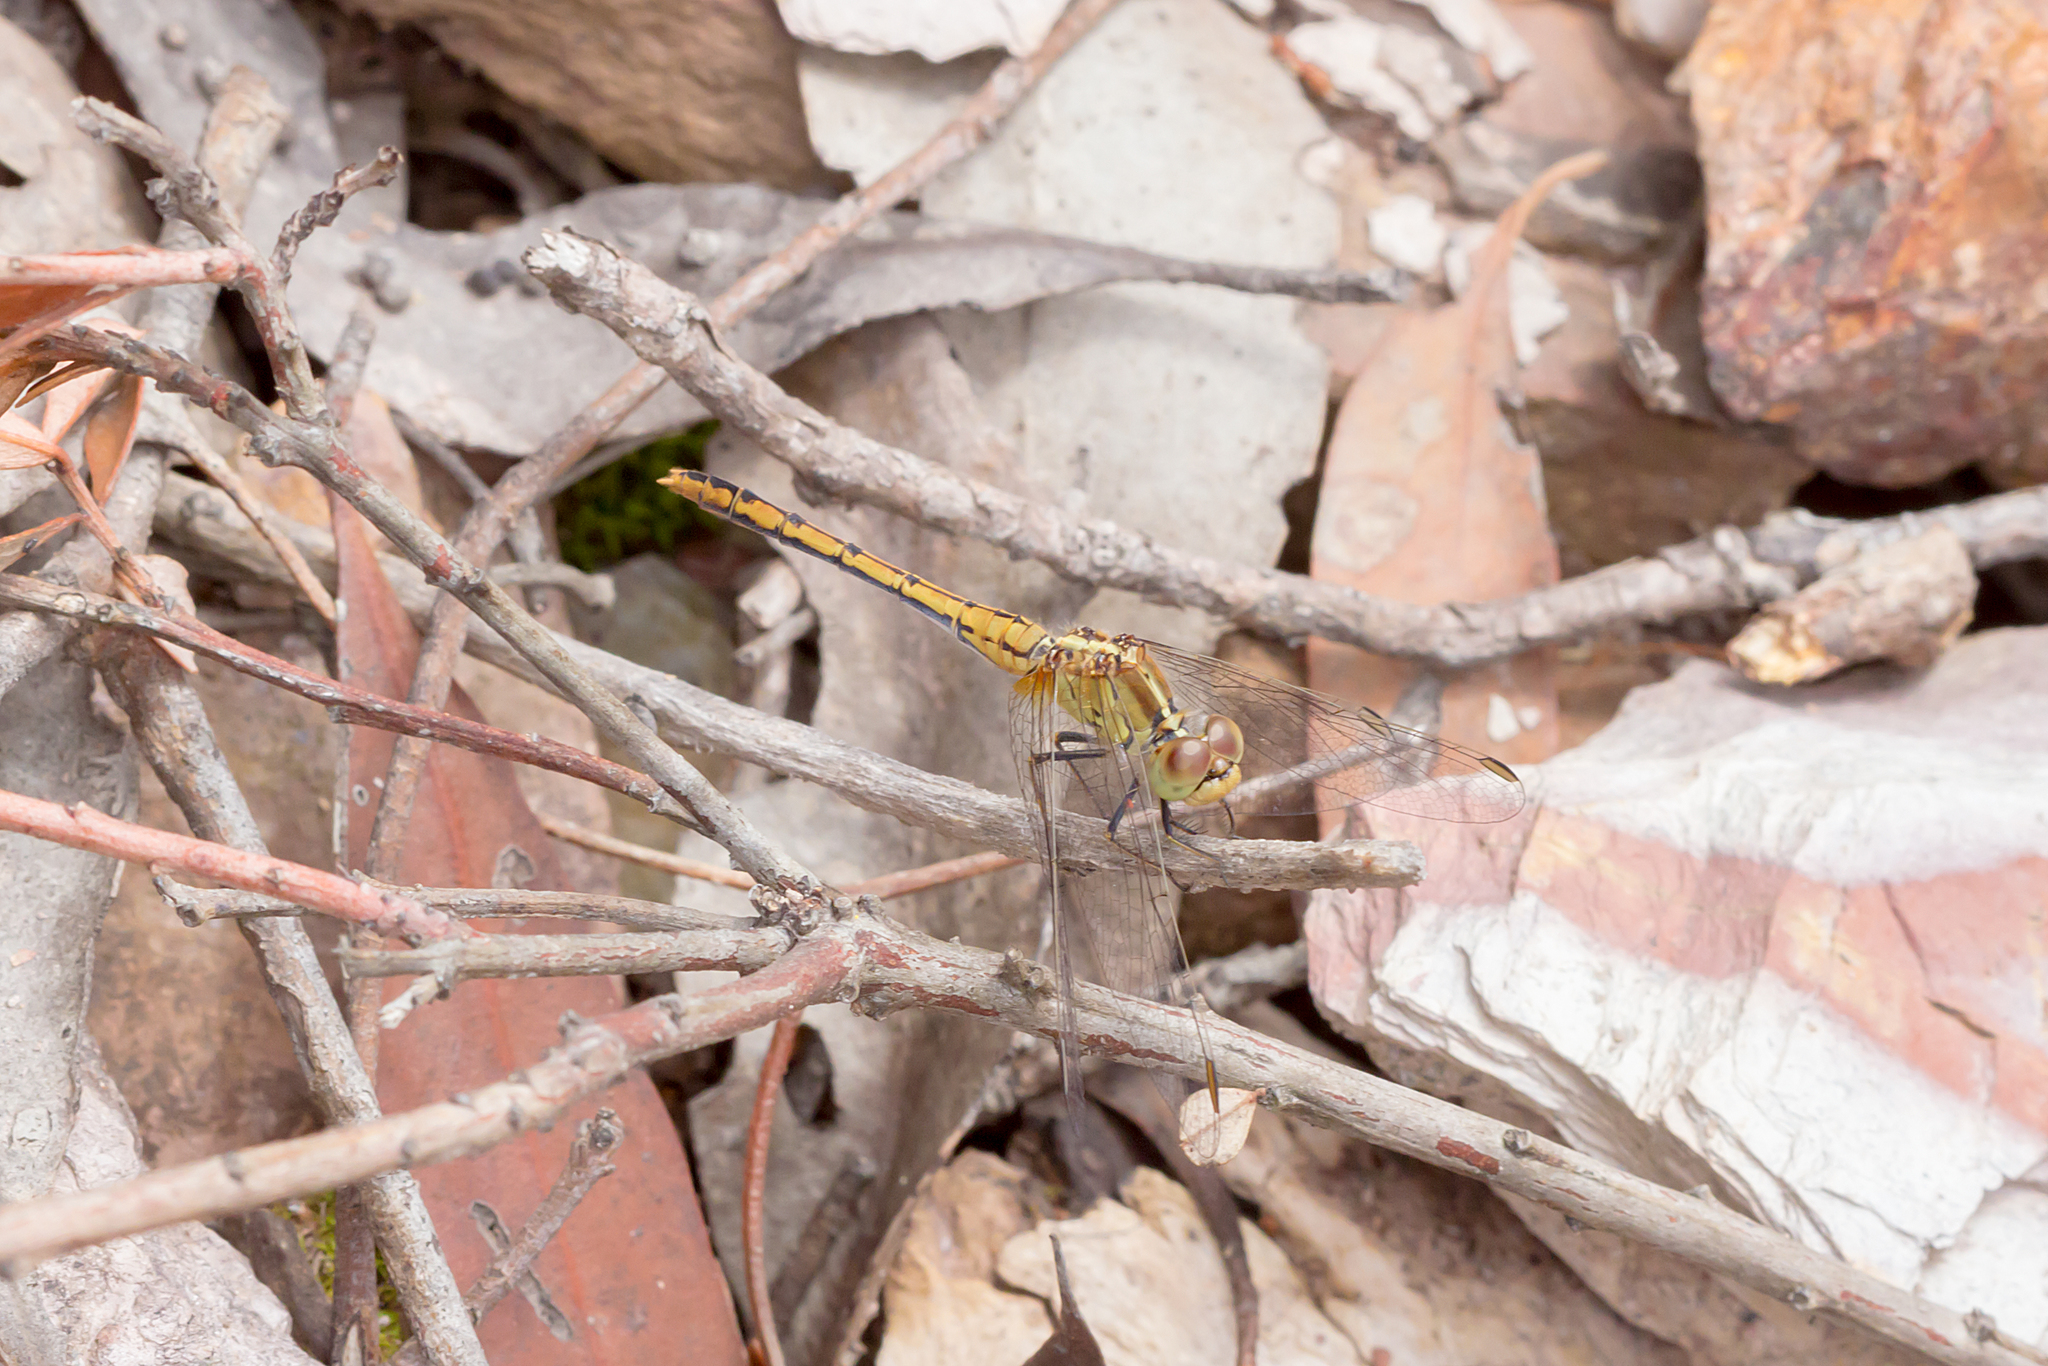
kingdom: Animalia
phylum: Arthropoda
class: Insecta
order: Odonata
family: Libellulidae
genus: Diplacodes
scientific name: Diplacodes bipunctata
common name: Red percher dragonfly
